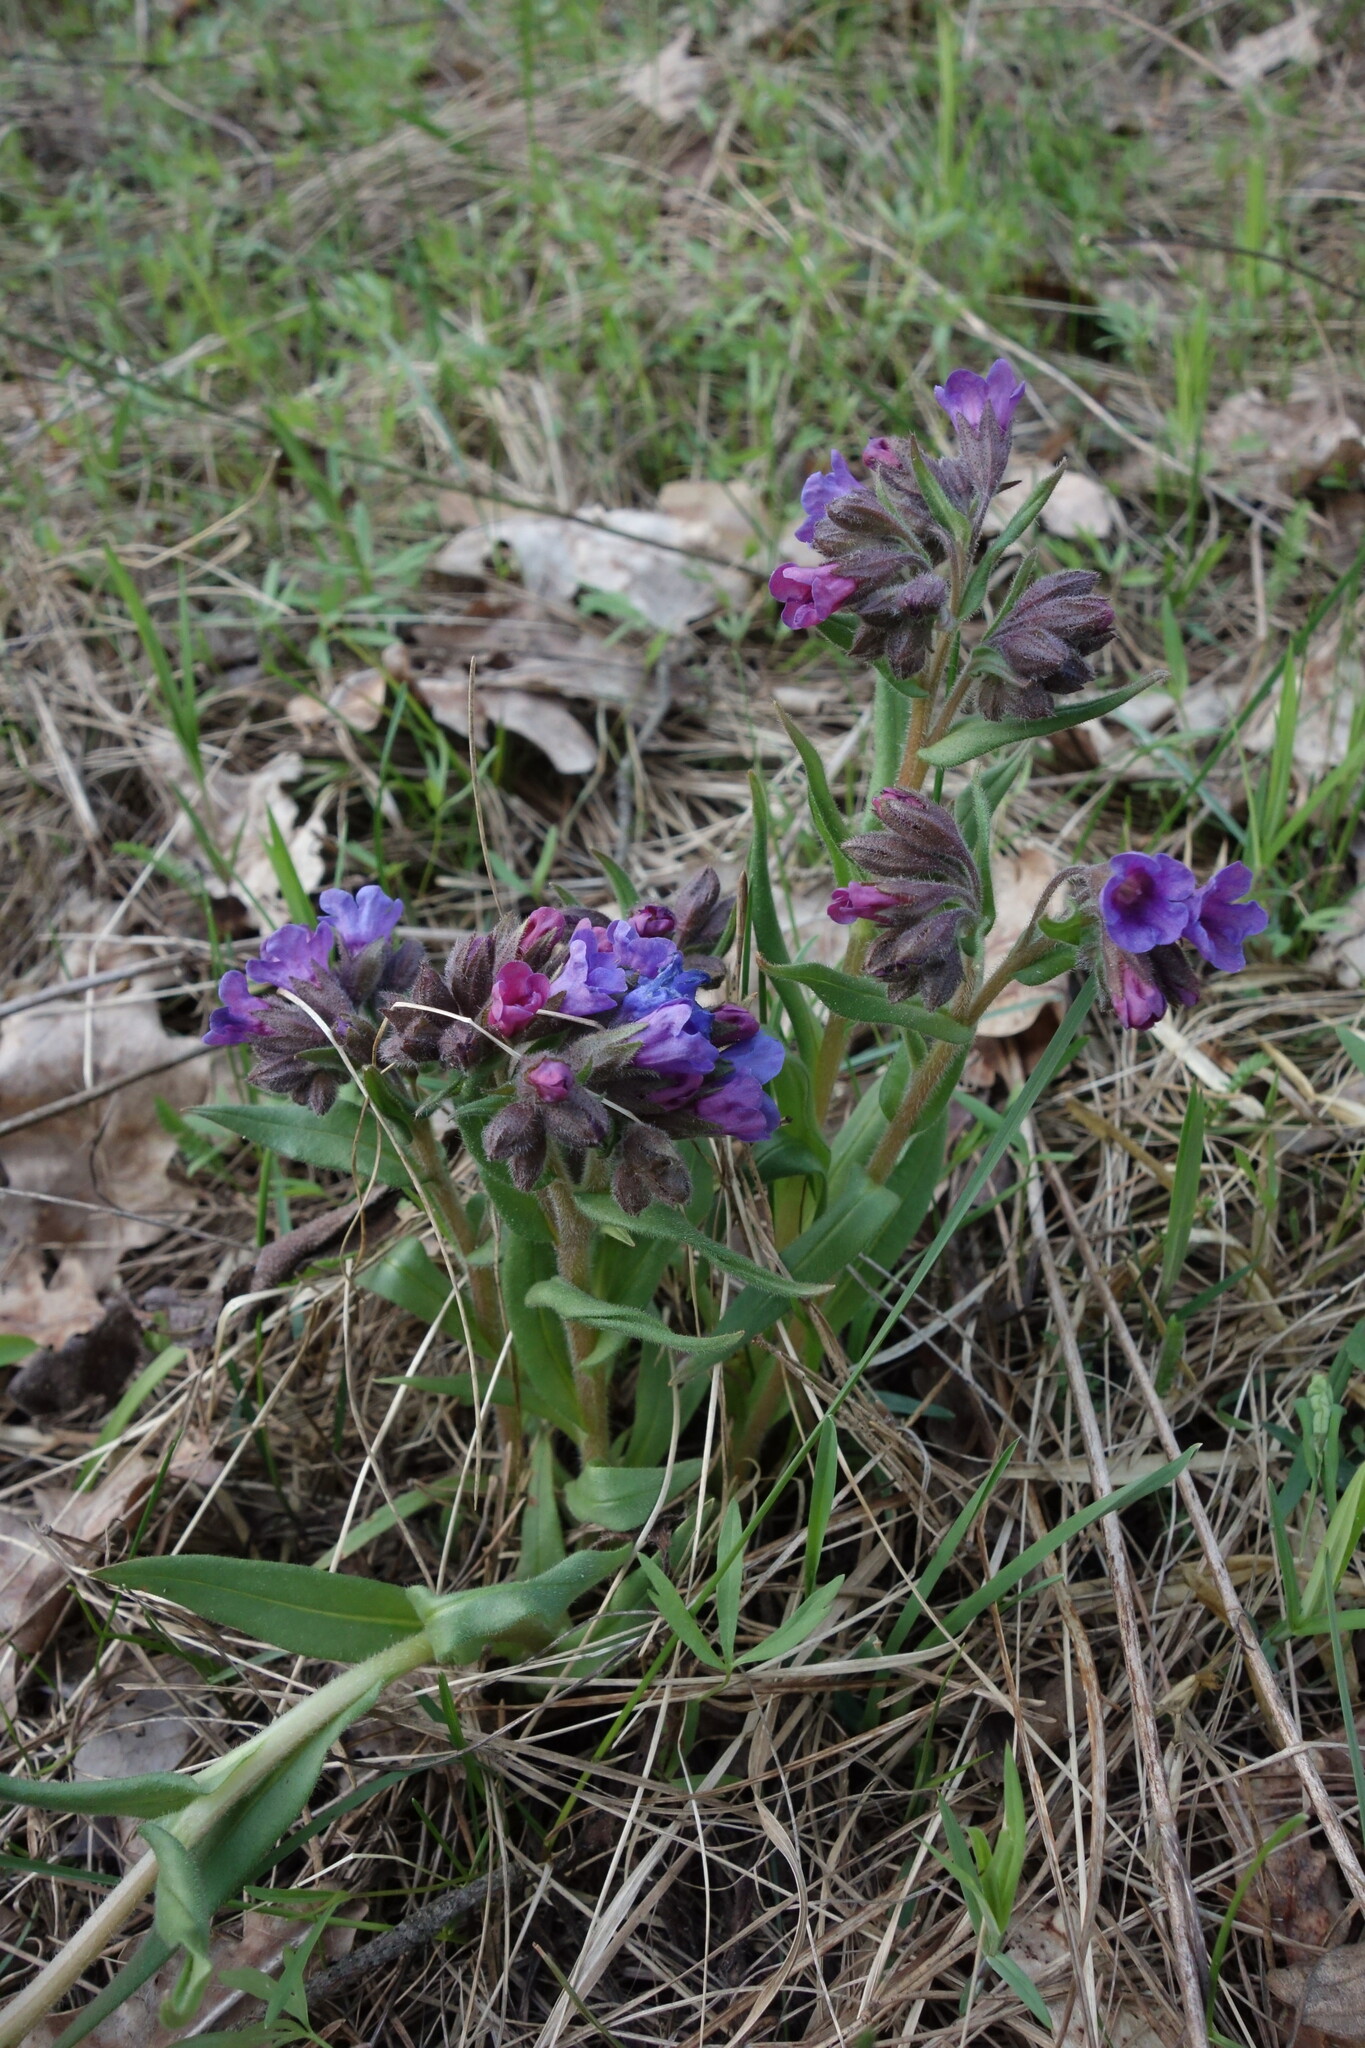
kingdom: Plantae
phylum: Tracheophyta
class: Magnoliopsida
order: Boraginales
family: Boraginaceae
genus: Pulmonaria
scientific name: Pulmonaria angustifolia
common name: Blue cowslip
